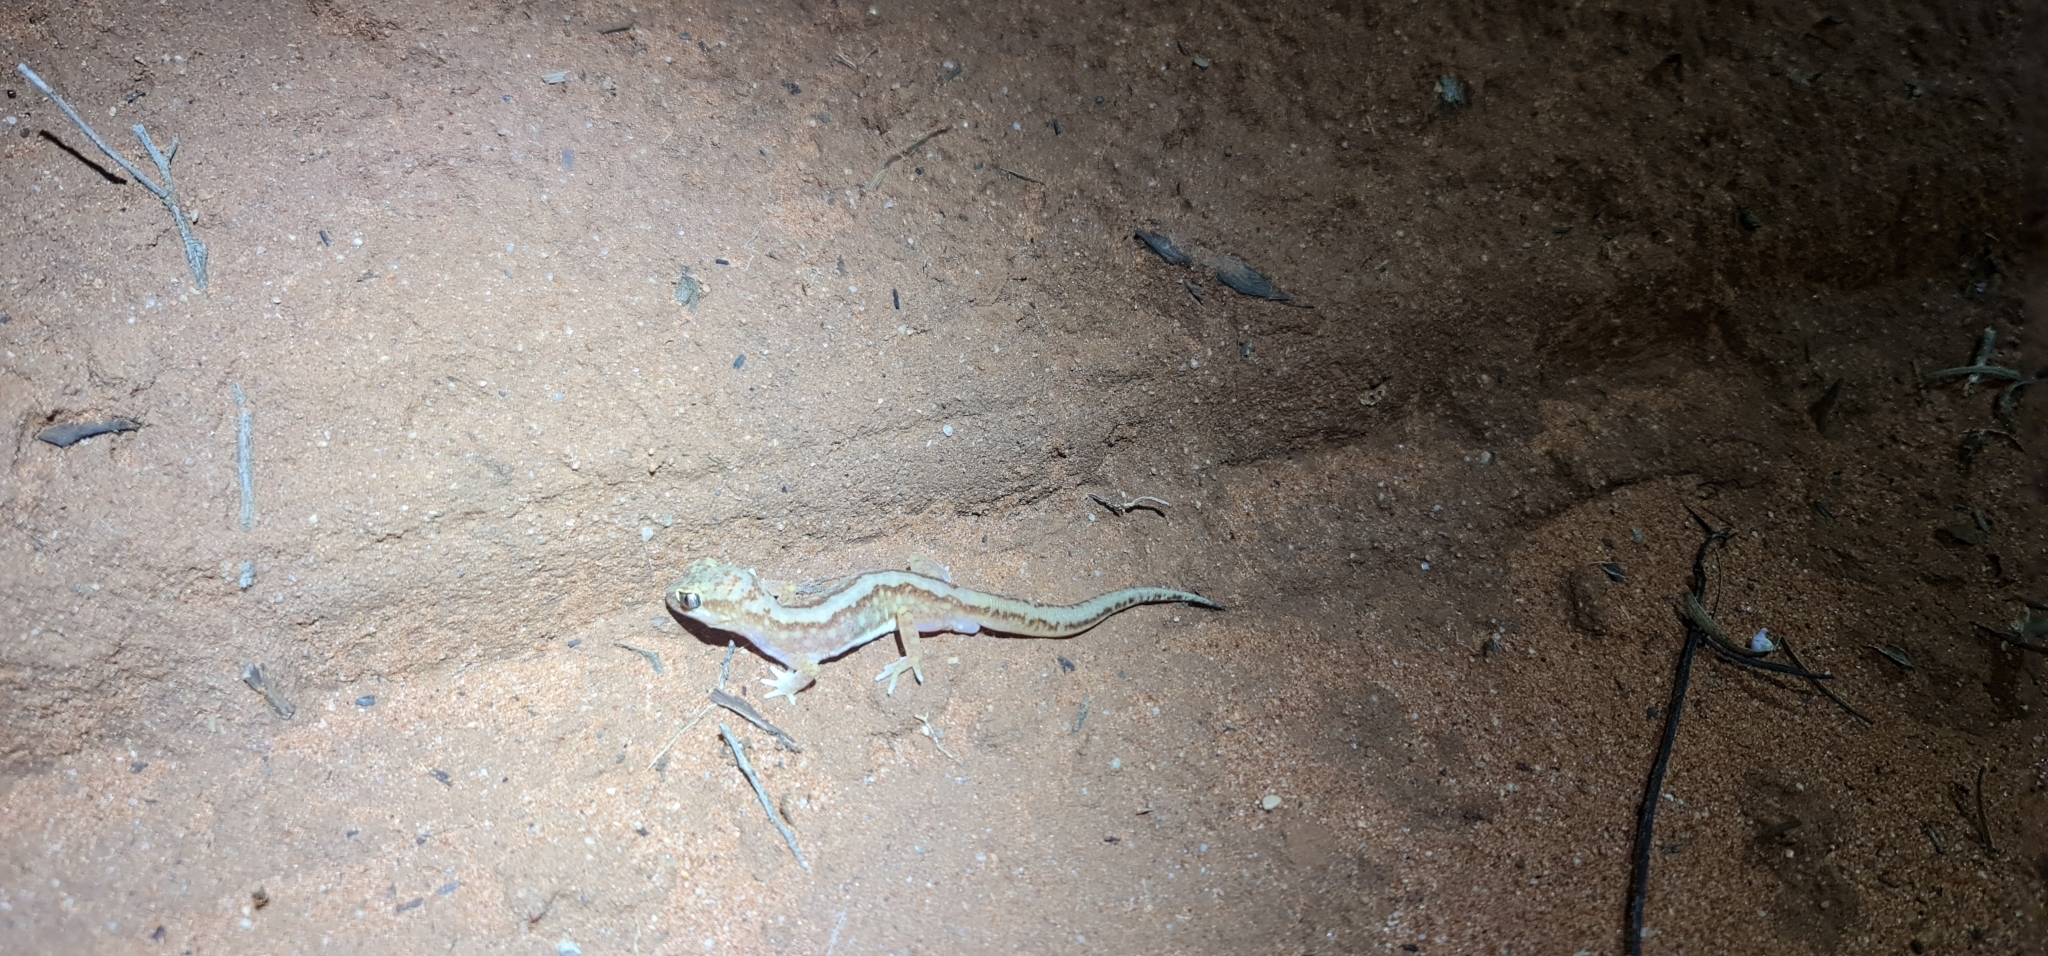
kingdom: Animalia
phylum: Chordata
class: Squamata
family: Diplodactylidae
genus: Lucasium
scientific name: Lucasium damaeum
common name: Beaded gecko
